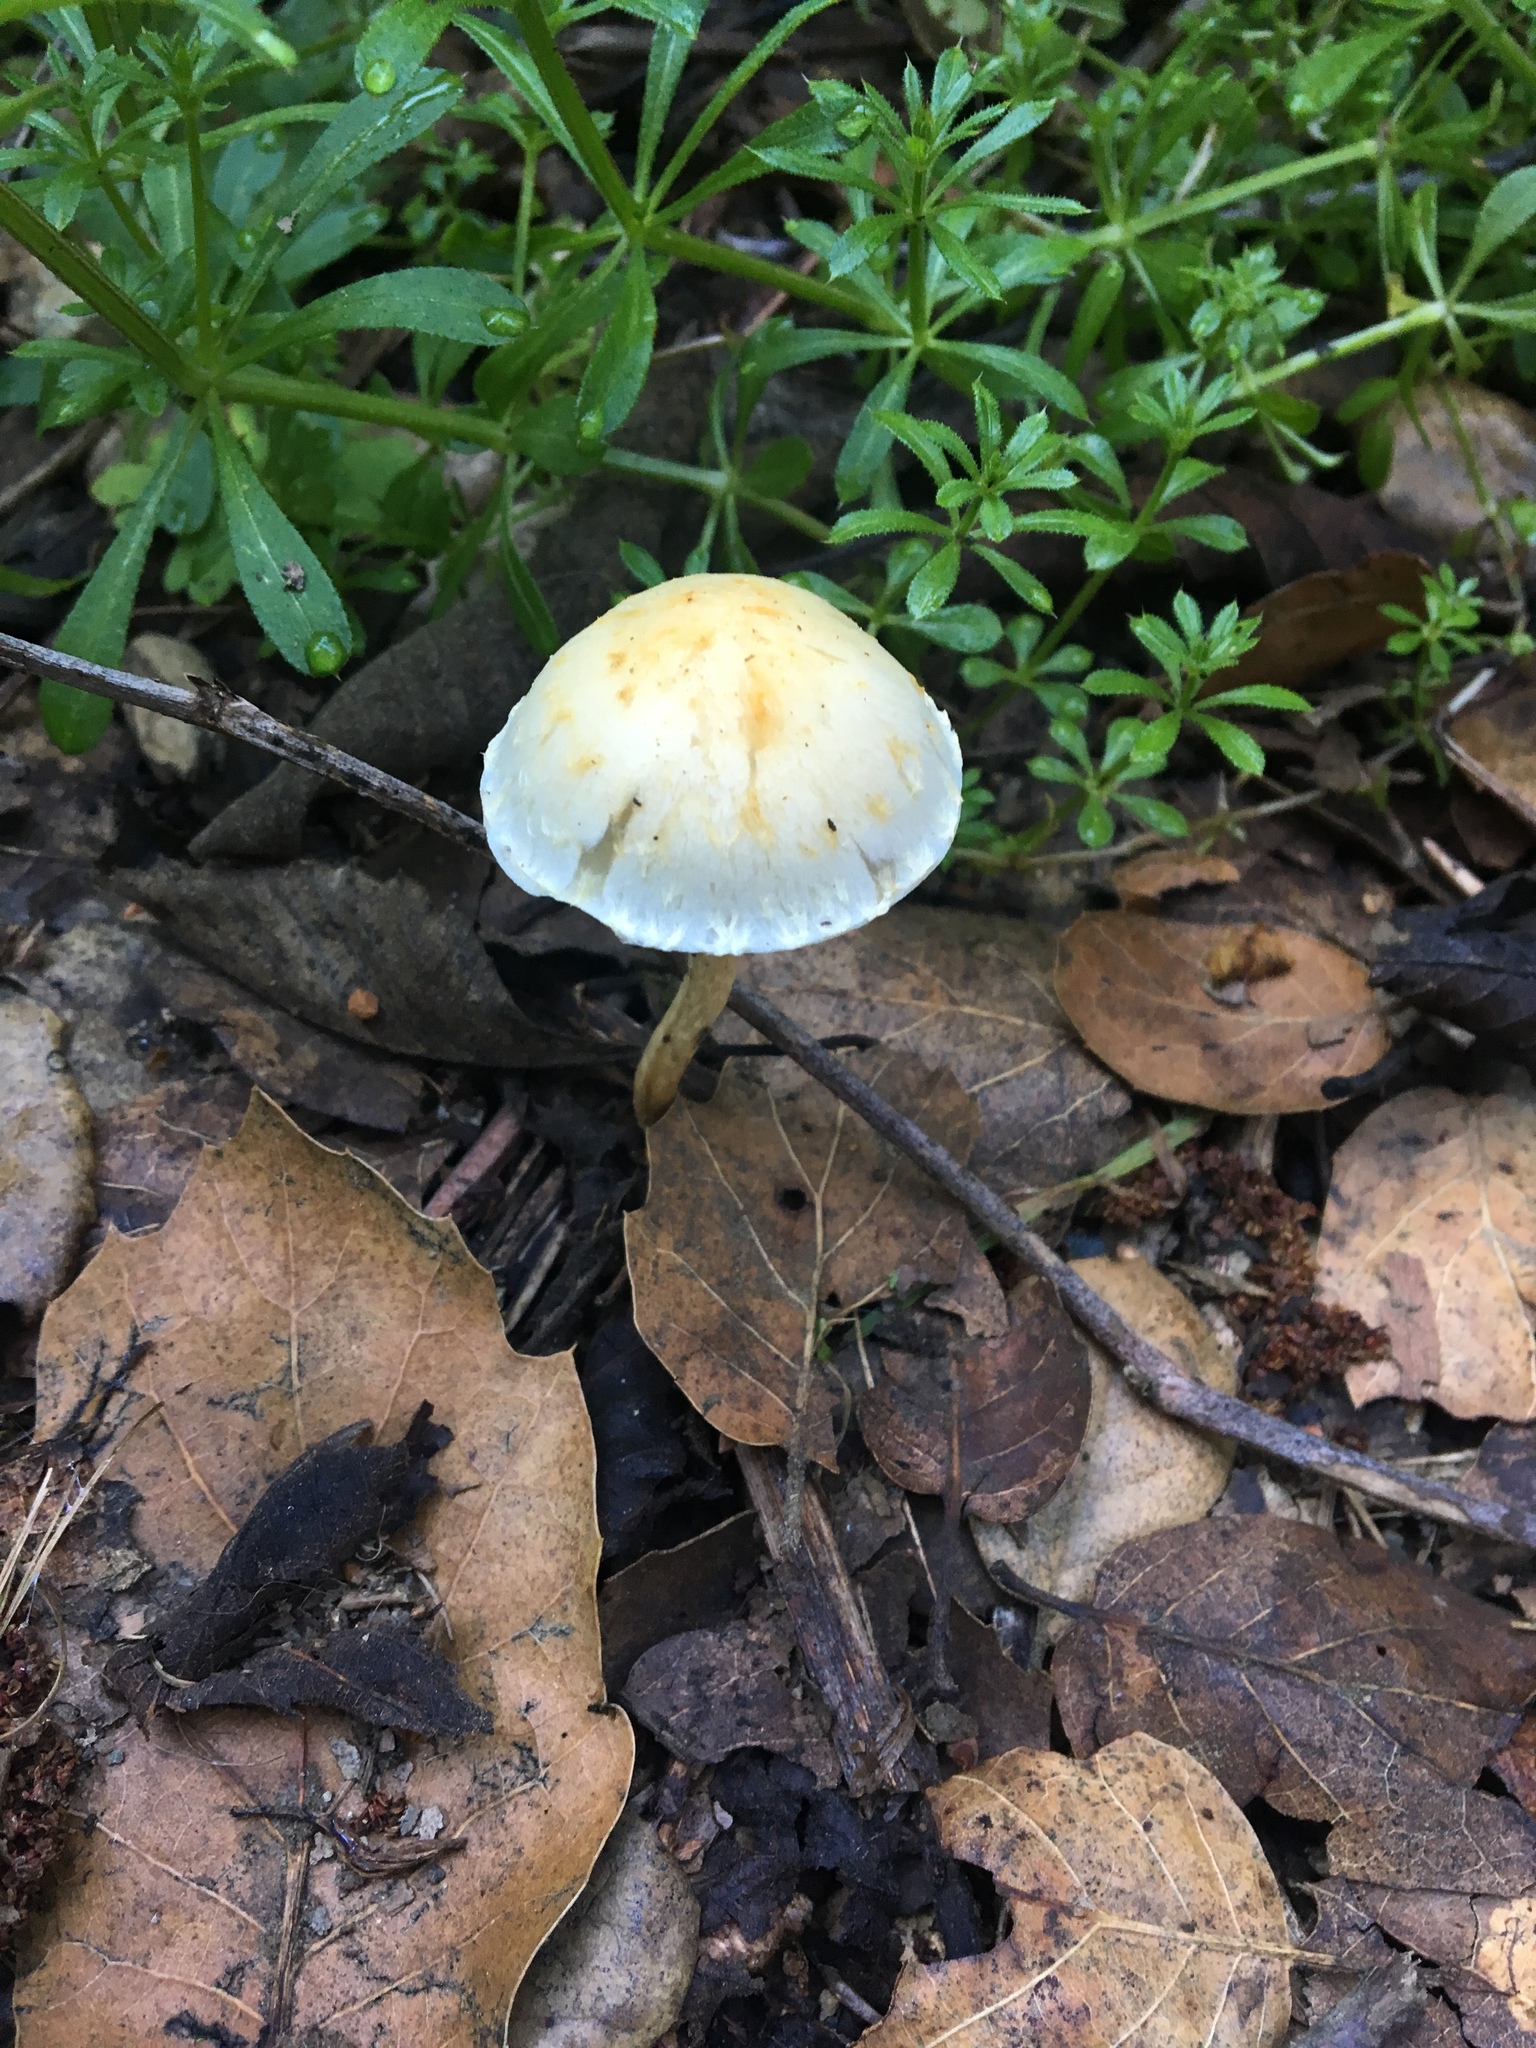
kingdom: Fungi
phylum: Basidiomycota
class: Agaricomycetes
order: Agaricales
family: Strophariaceae
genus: Leratiomyces
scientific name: Leratiomyces percevalii
